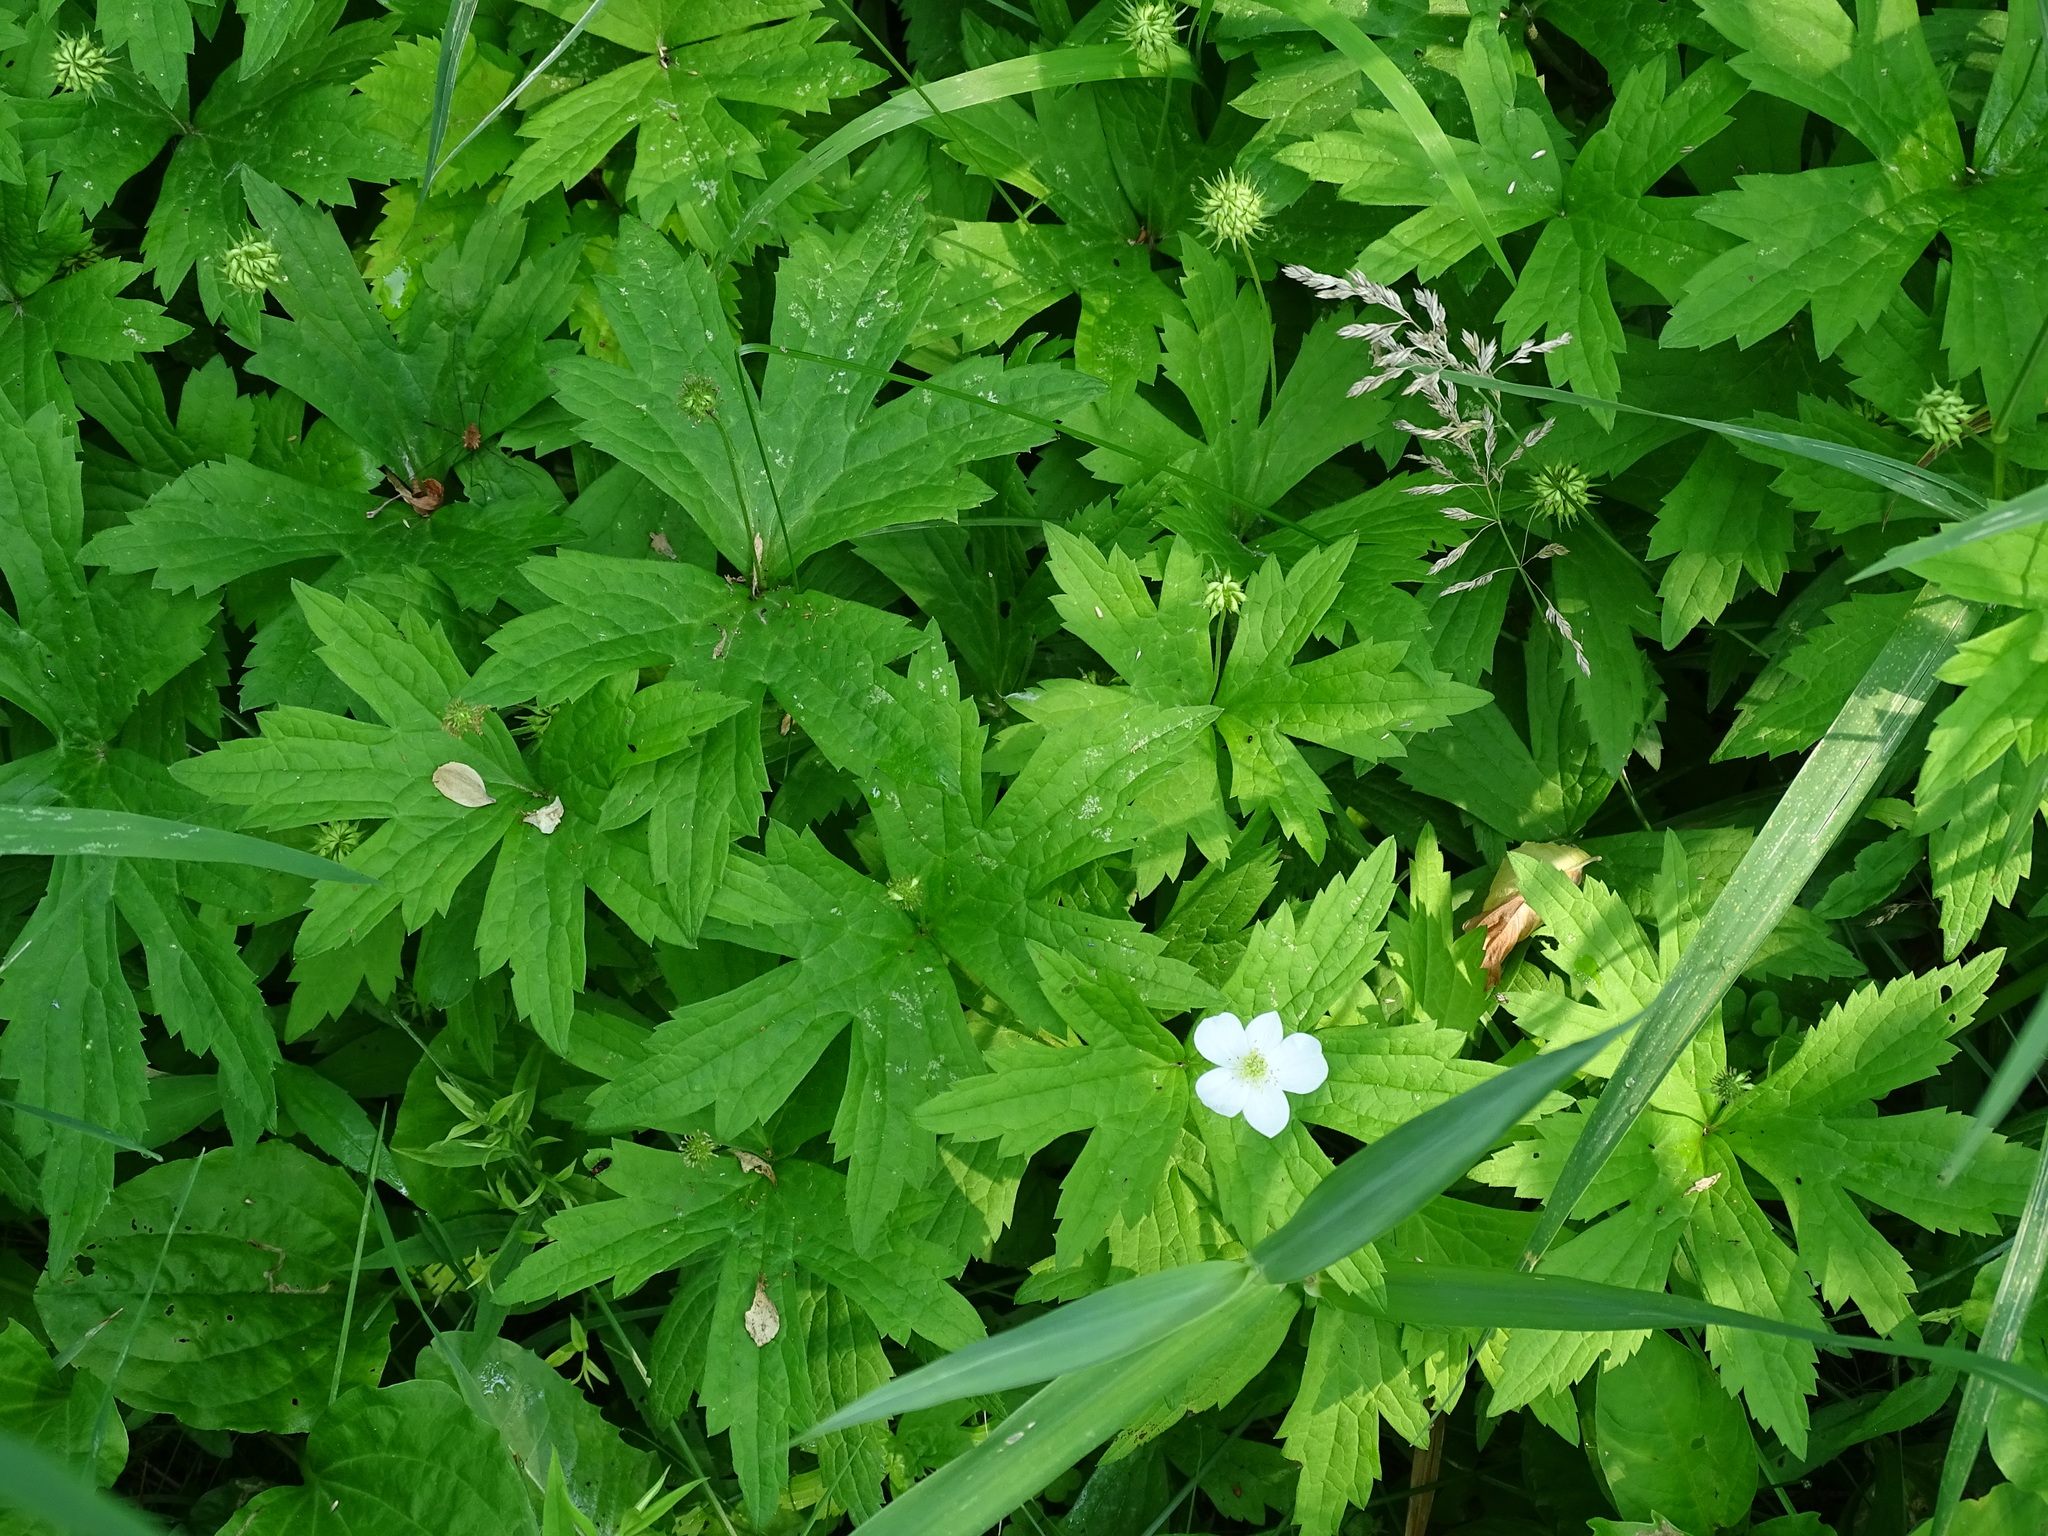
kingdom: Plantae
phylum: Tracheophyta
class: Magnoliopsida
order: Ranunculales
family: Ranunculaceae
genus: Anemonastrum
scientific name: Anemonastrum canadense
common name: Canada anemone
